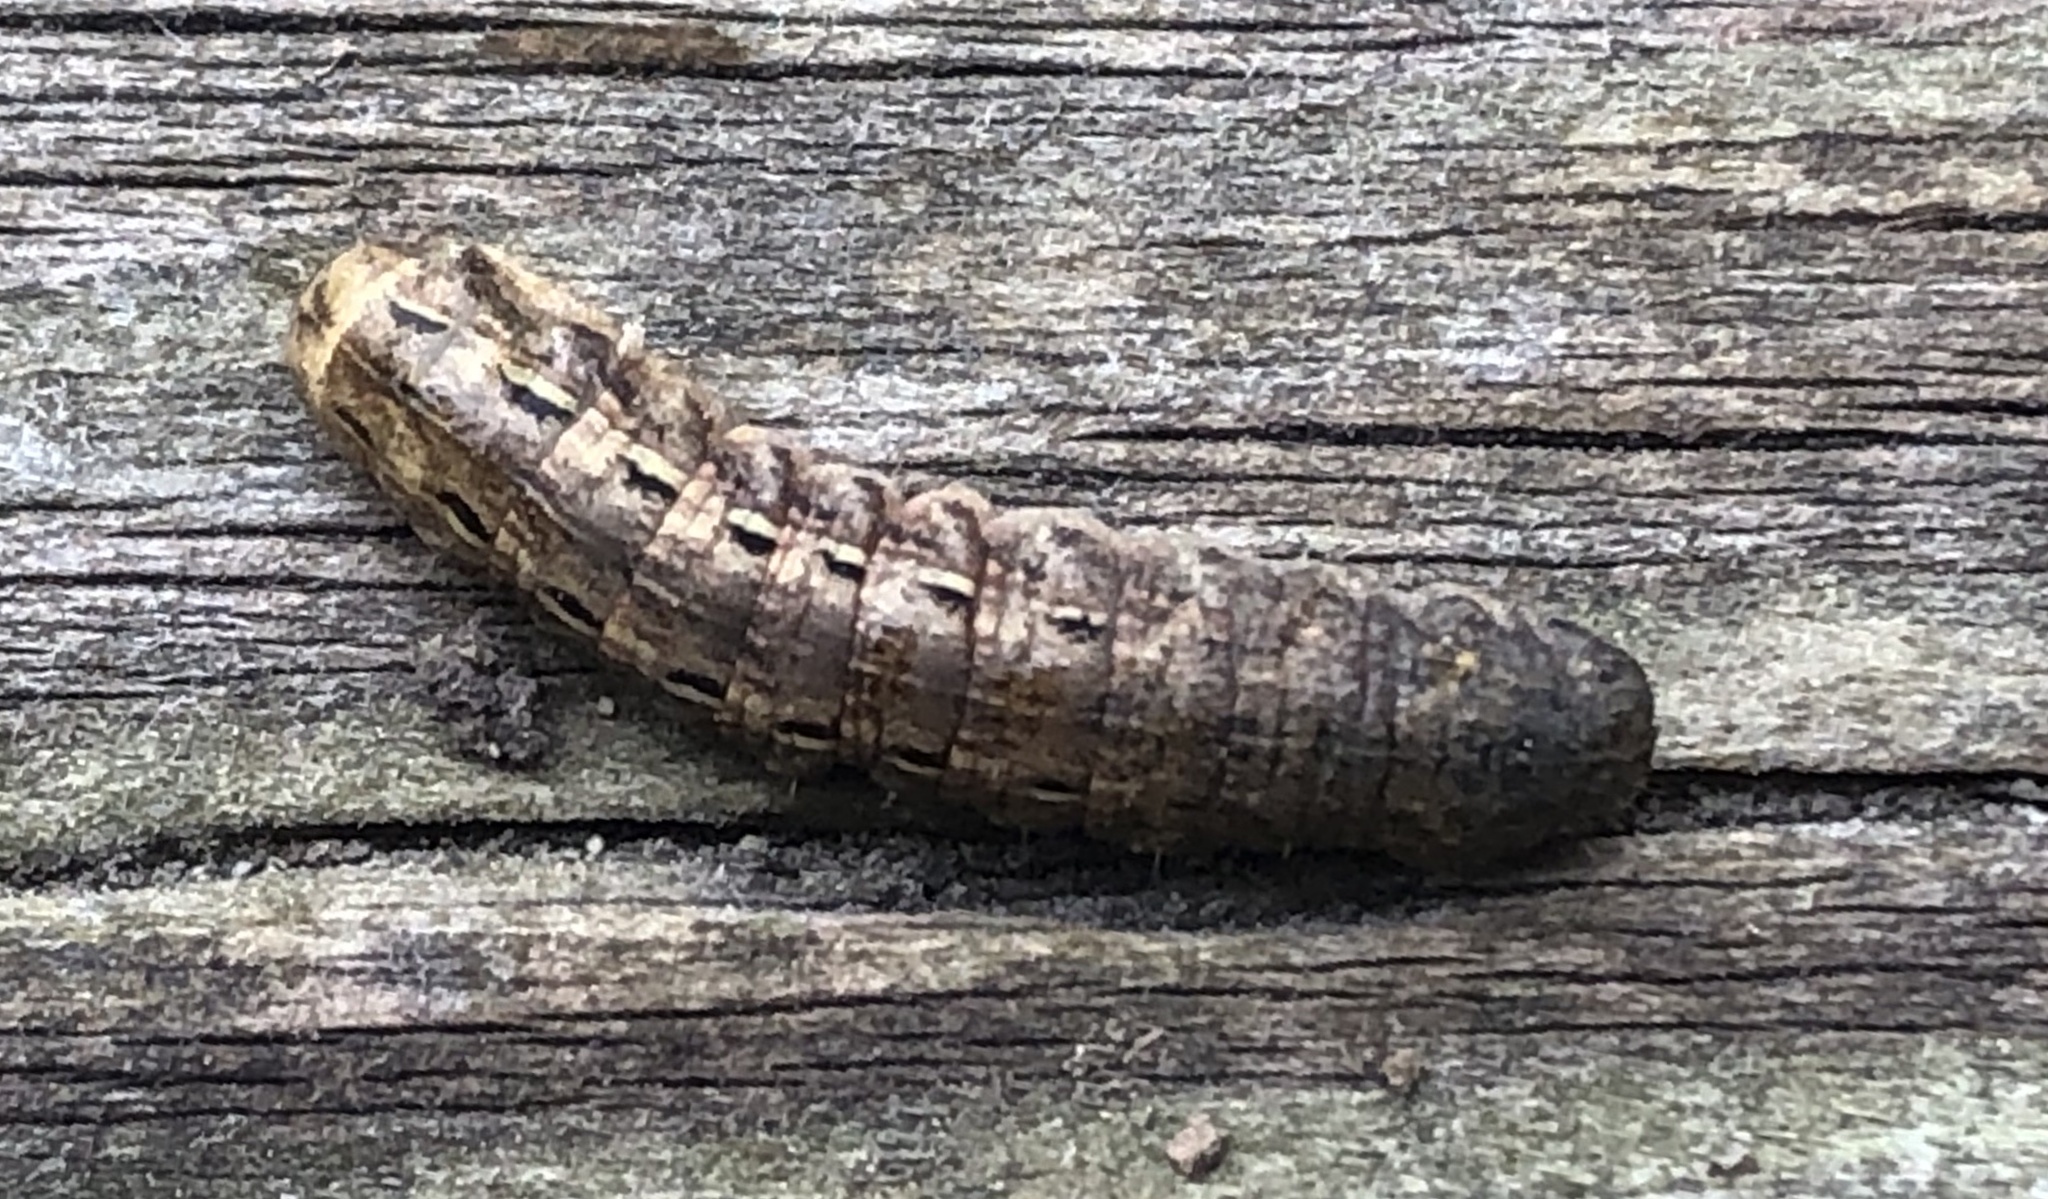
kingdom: Animalia
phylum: Arthropoda
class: Insecta
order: Lepidoptera
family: Noctuidae
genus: Noctua
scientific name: Noctua pronuba
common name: Large yellow underwing
